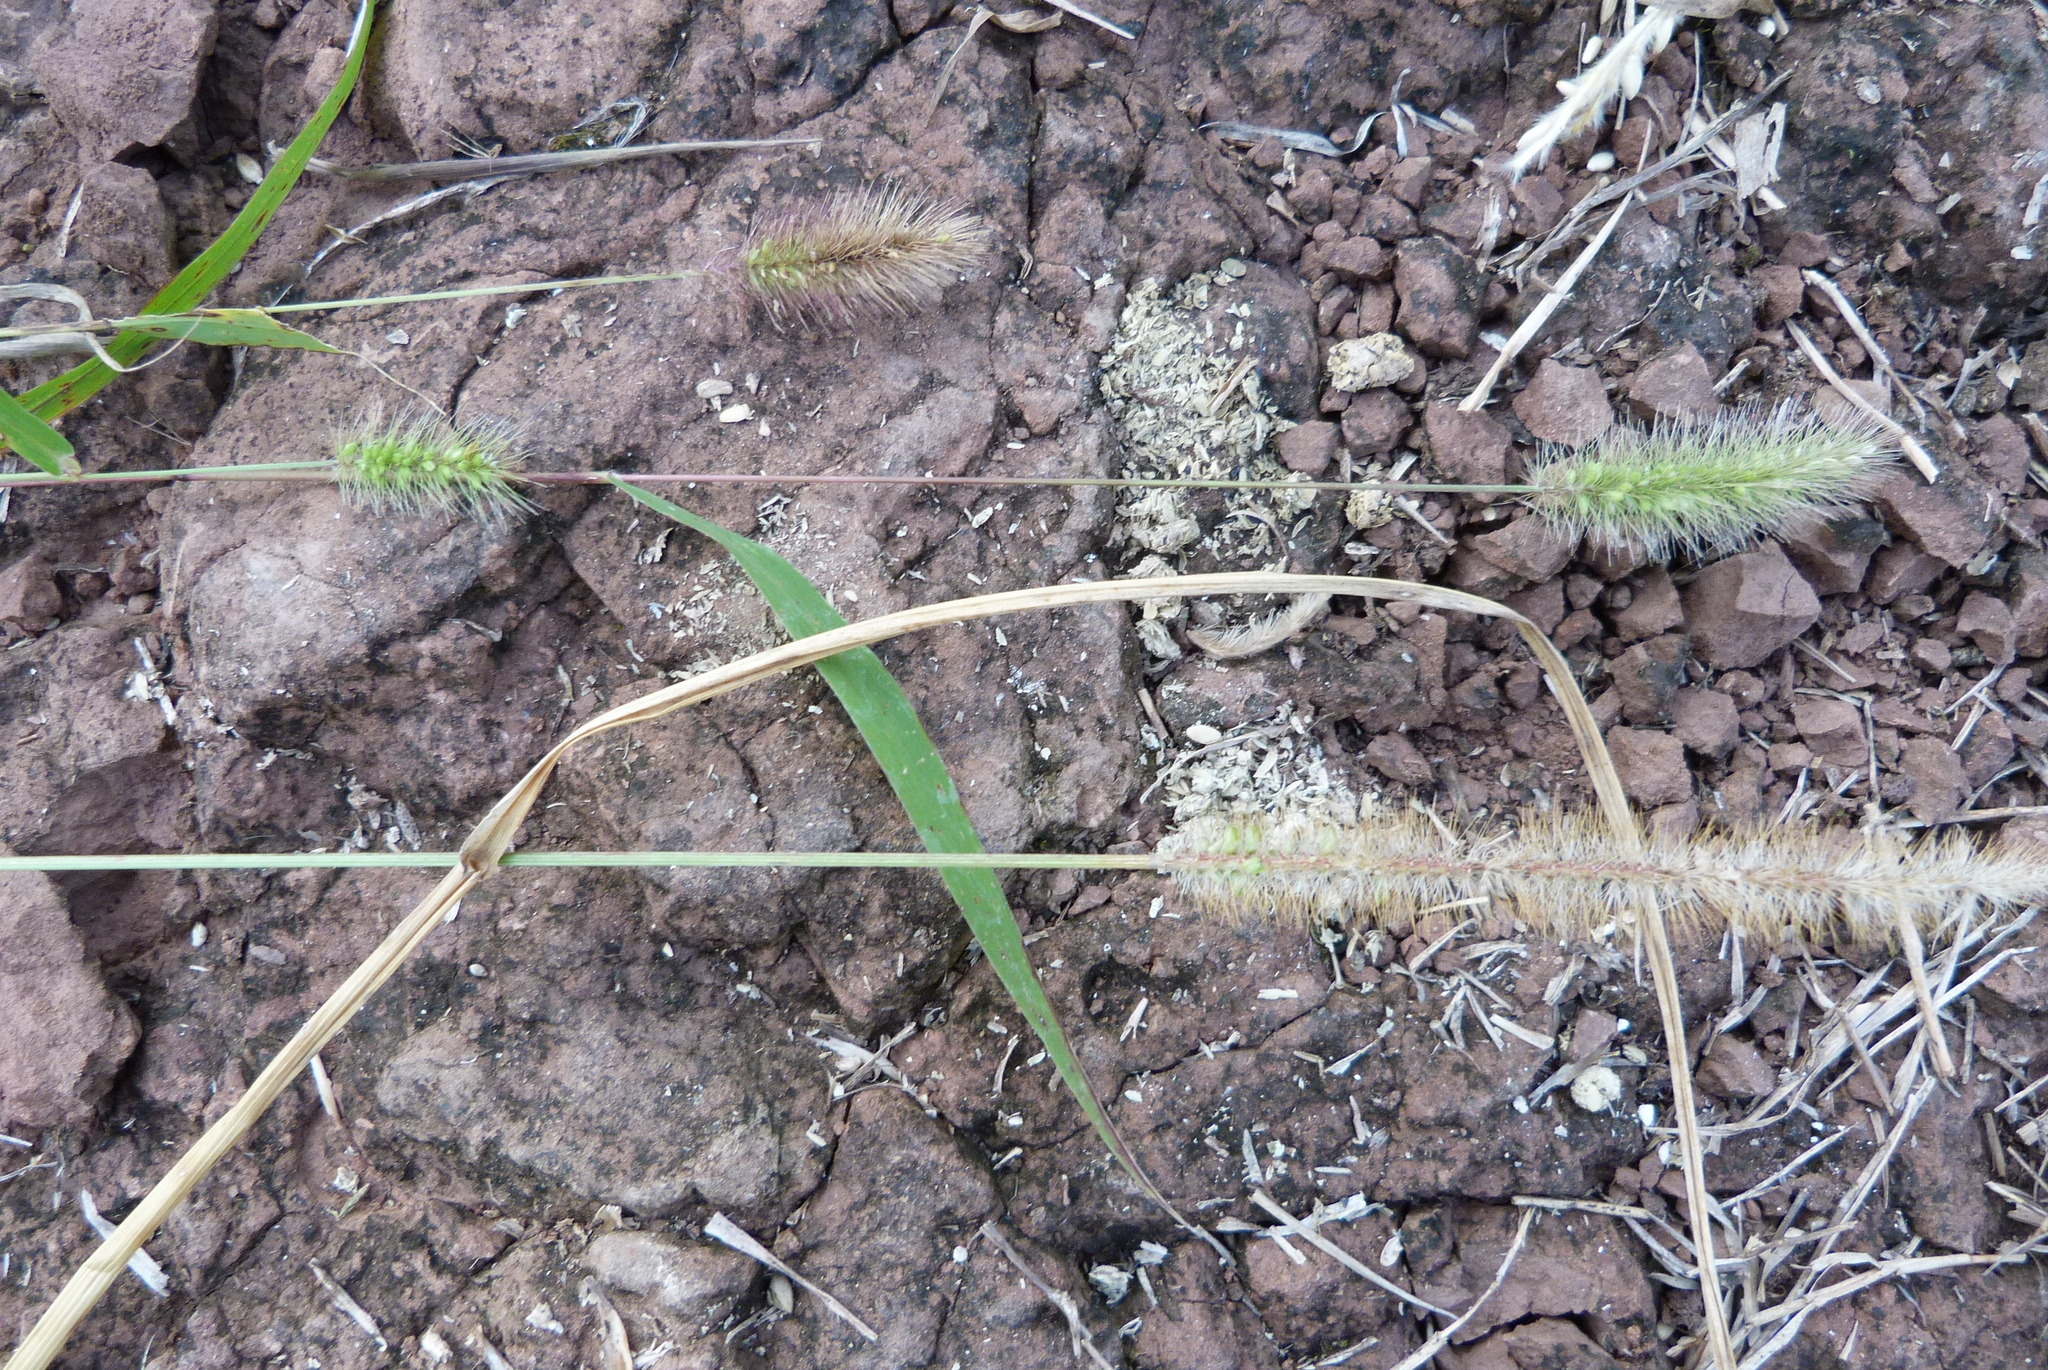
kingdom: Plantae
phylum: Tracheophyta
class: Liliopsida
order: Poales
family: Poaceae
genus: Setaria
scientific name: Setaria viridis
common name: Green bristlegrass
